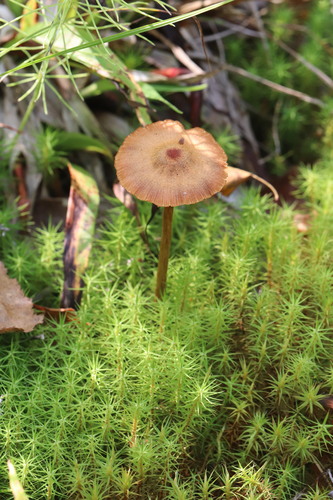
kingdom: Fungi
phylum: Basidiomycota
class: Agaricomycetes
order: Agaricales
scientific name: Agaricales
